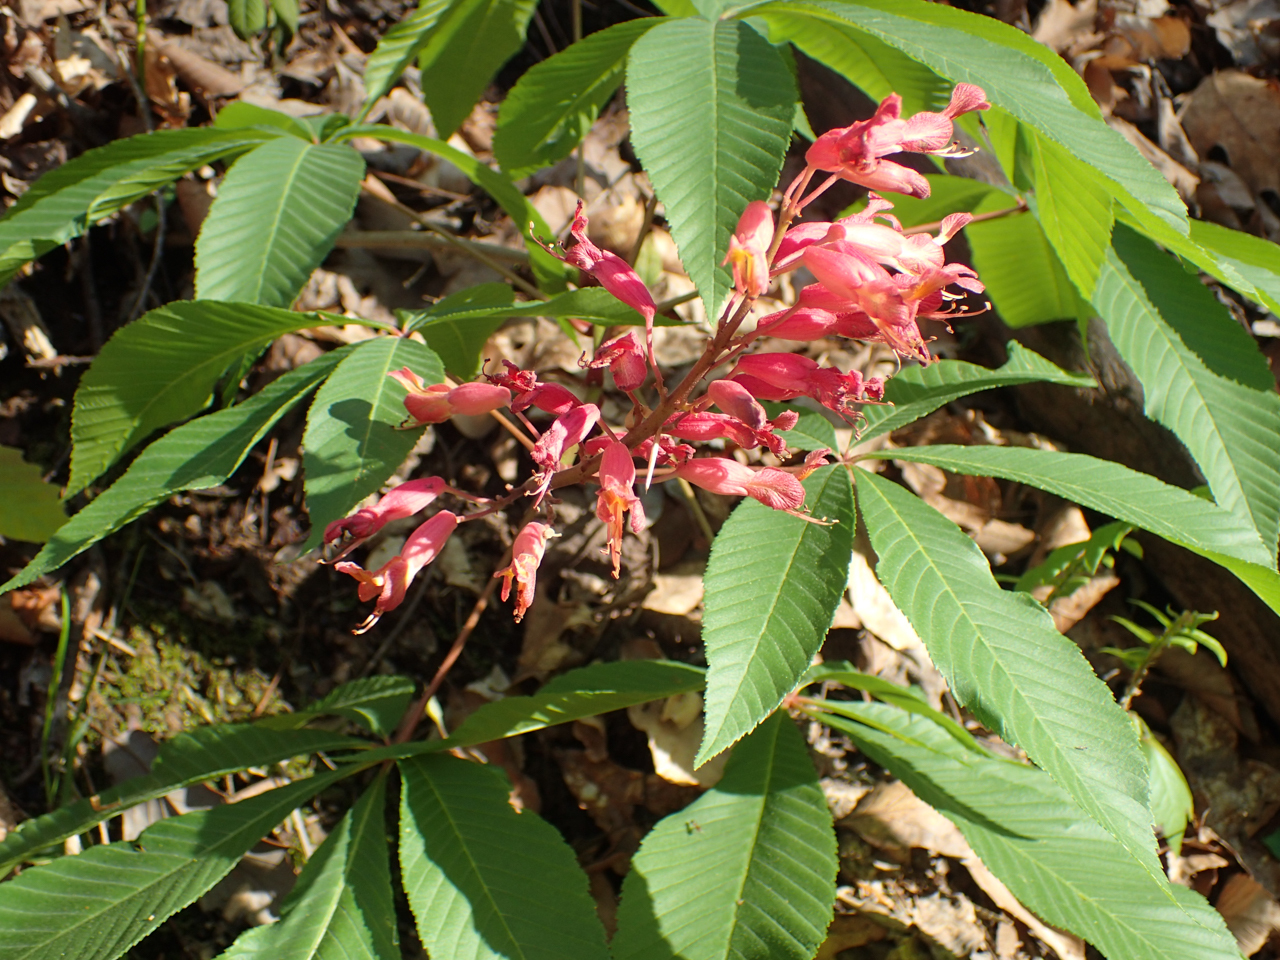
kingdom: Plantae
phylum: Tracheophyta
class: Magnoliopsida
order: Sapindales
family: Sapindaceae
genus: Aesculus
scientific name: Aesculus pavia
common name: Red buckeye
